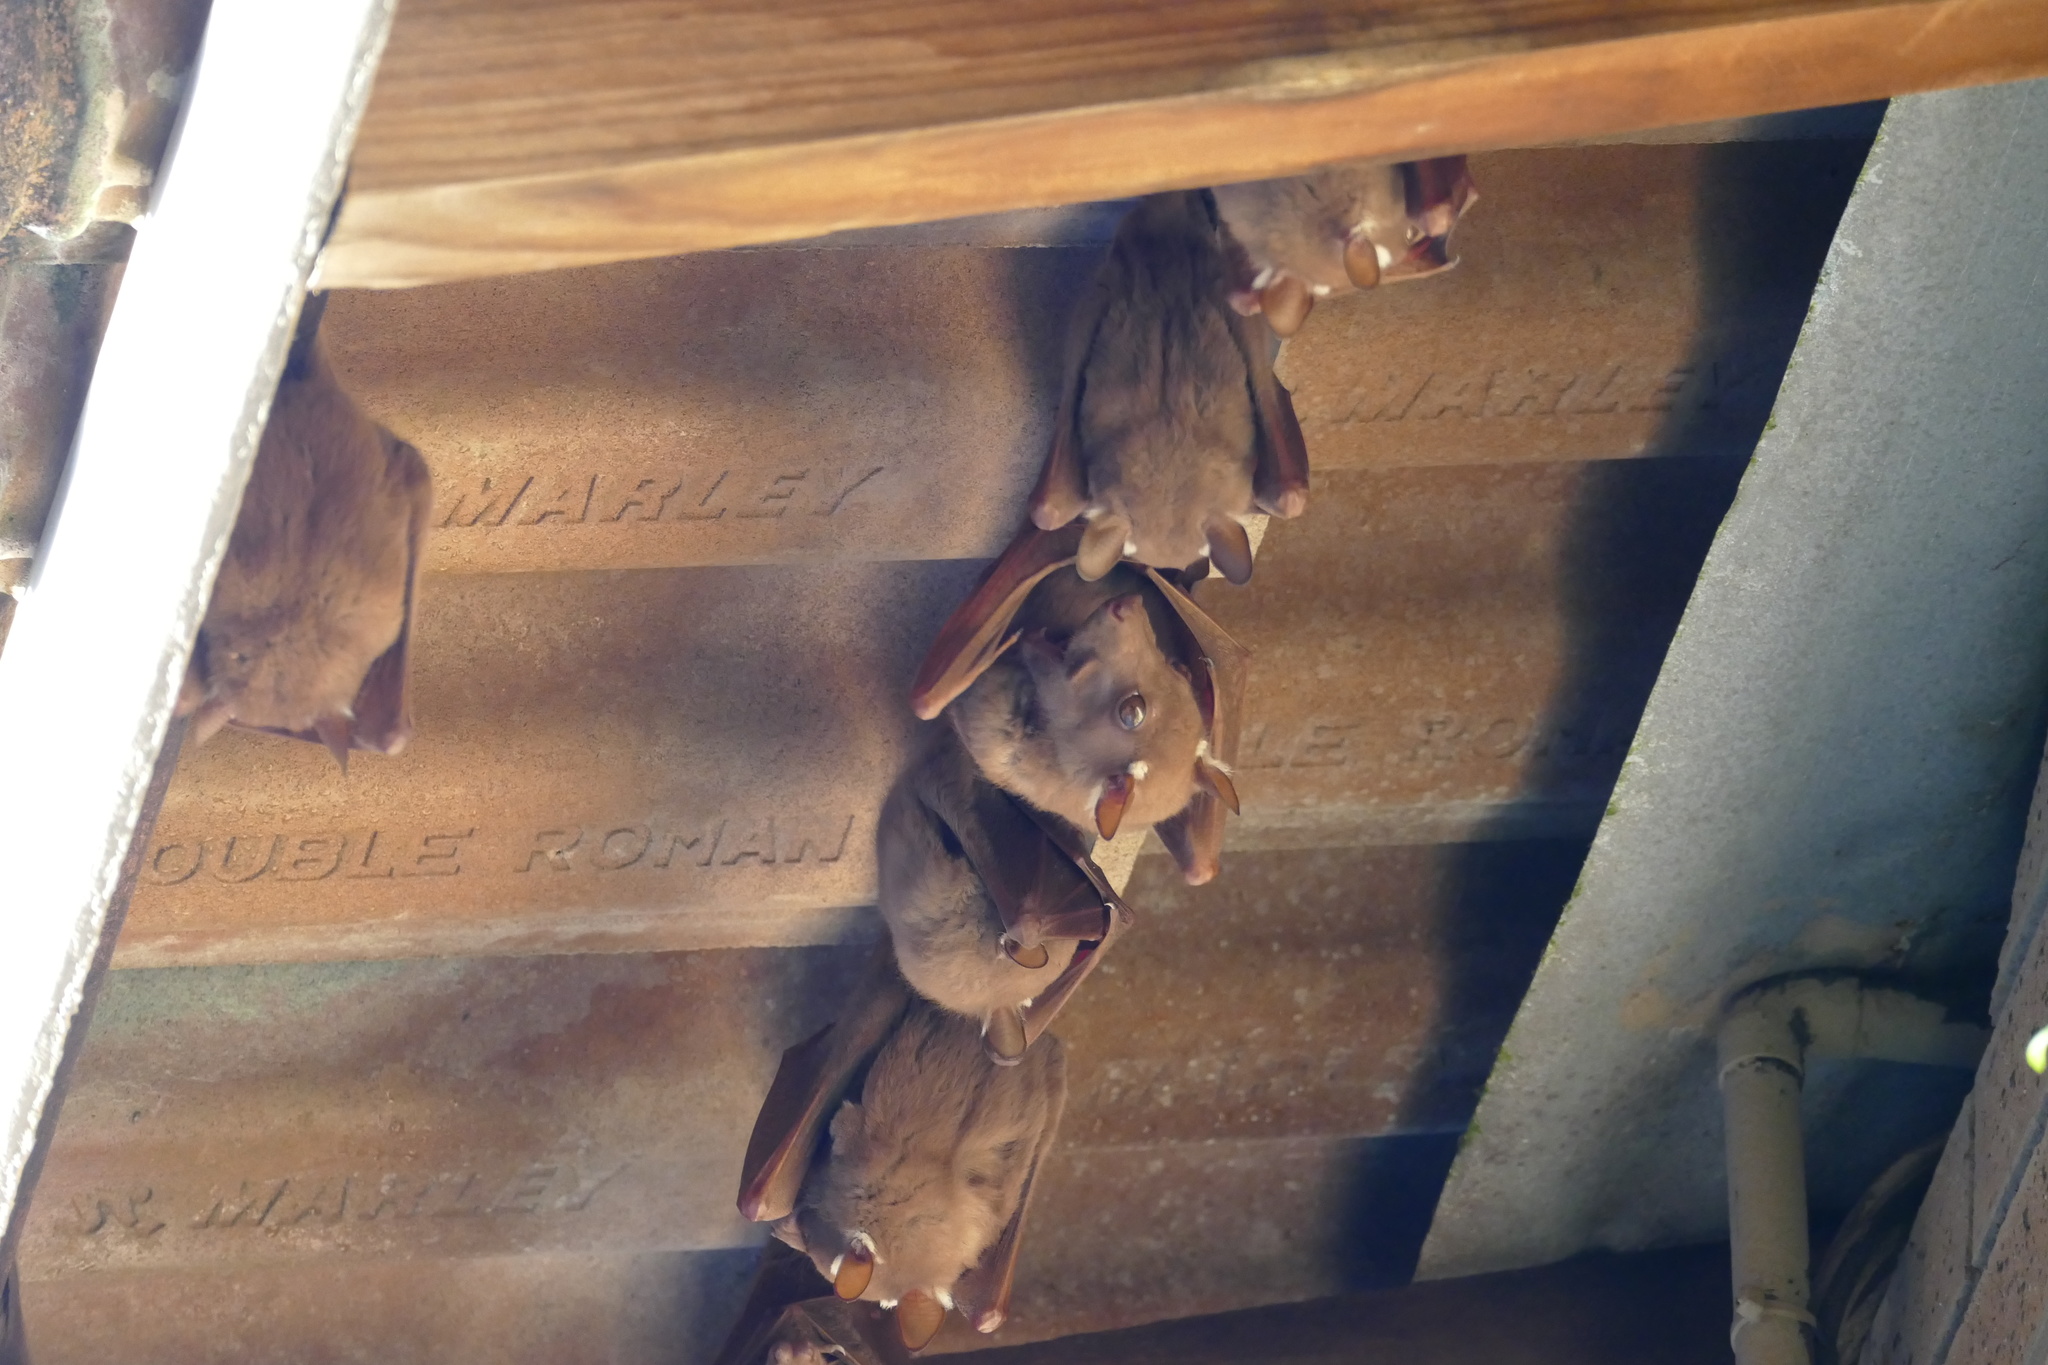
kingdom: Animalia
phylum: Chordata
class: Mammalia
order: Chiroptera
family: Pteropodidae
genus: Epomophorus
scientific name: Epomophorus wahlbergi
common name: Wahlberg's epauletted fruit bat
